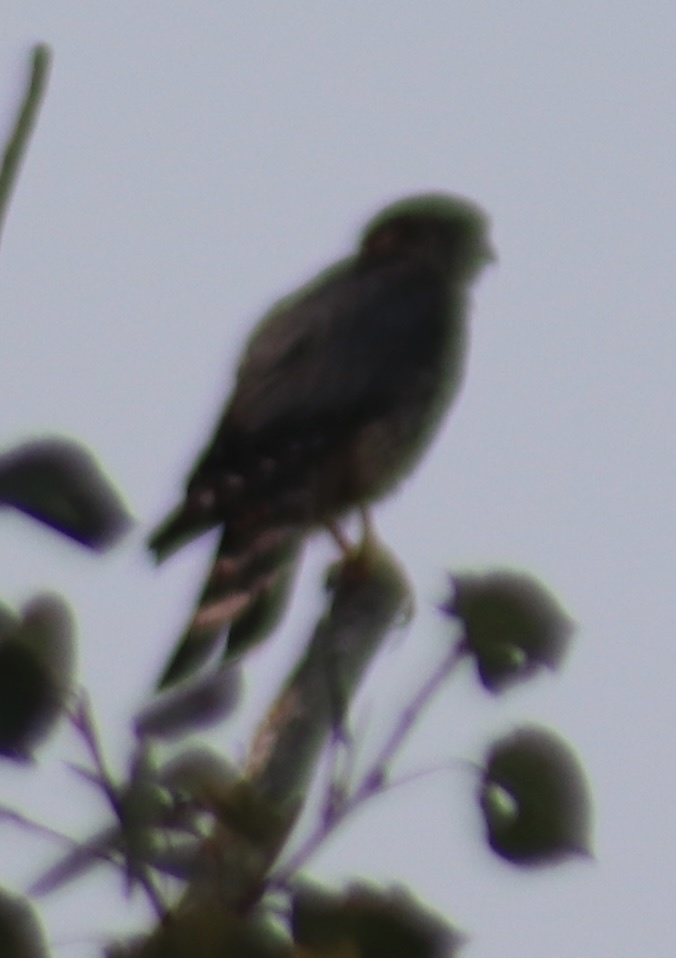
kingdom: Animalia
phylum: Chordata
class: Aves
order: Falconiformes
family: Falconidae
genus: Falco
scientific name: Falco columbarius
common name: Merlin
